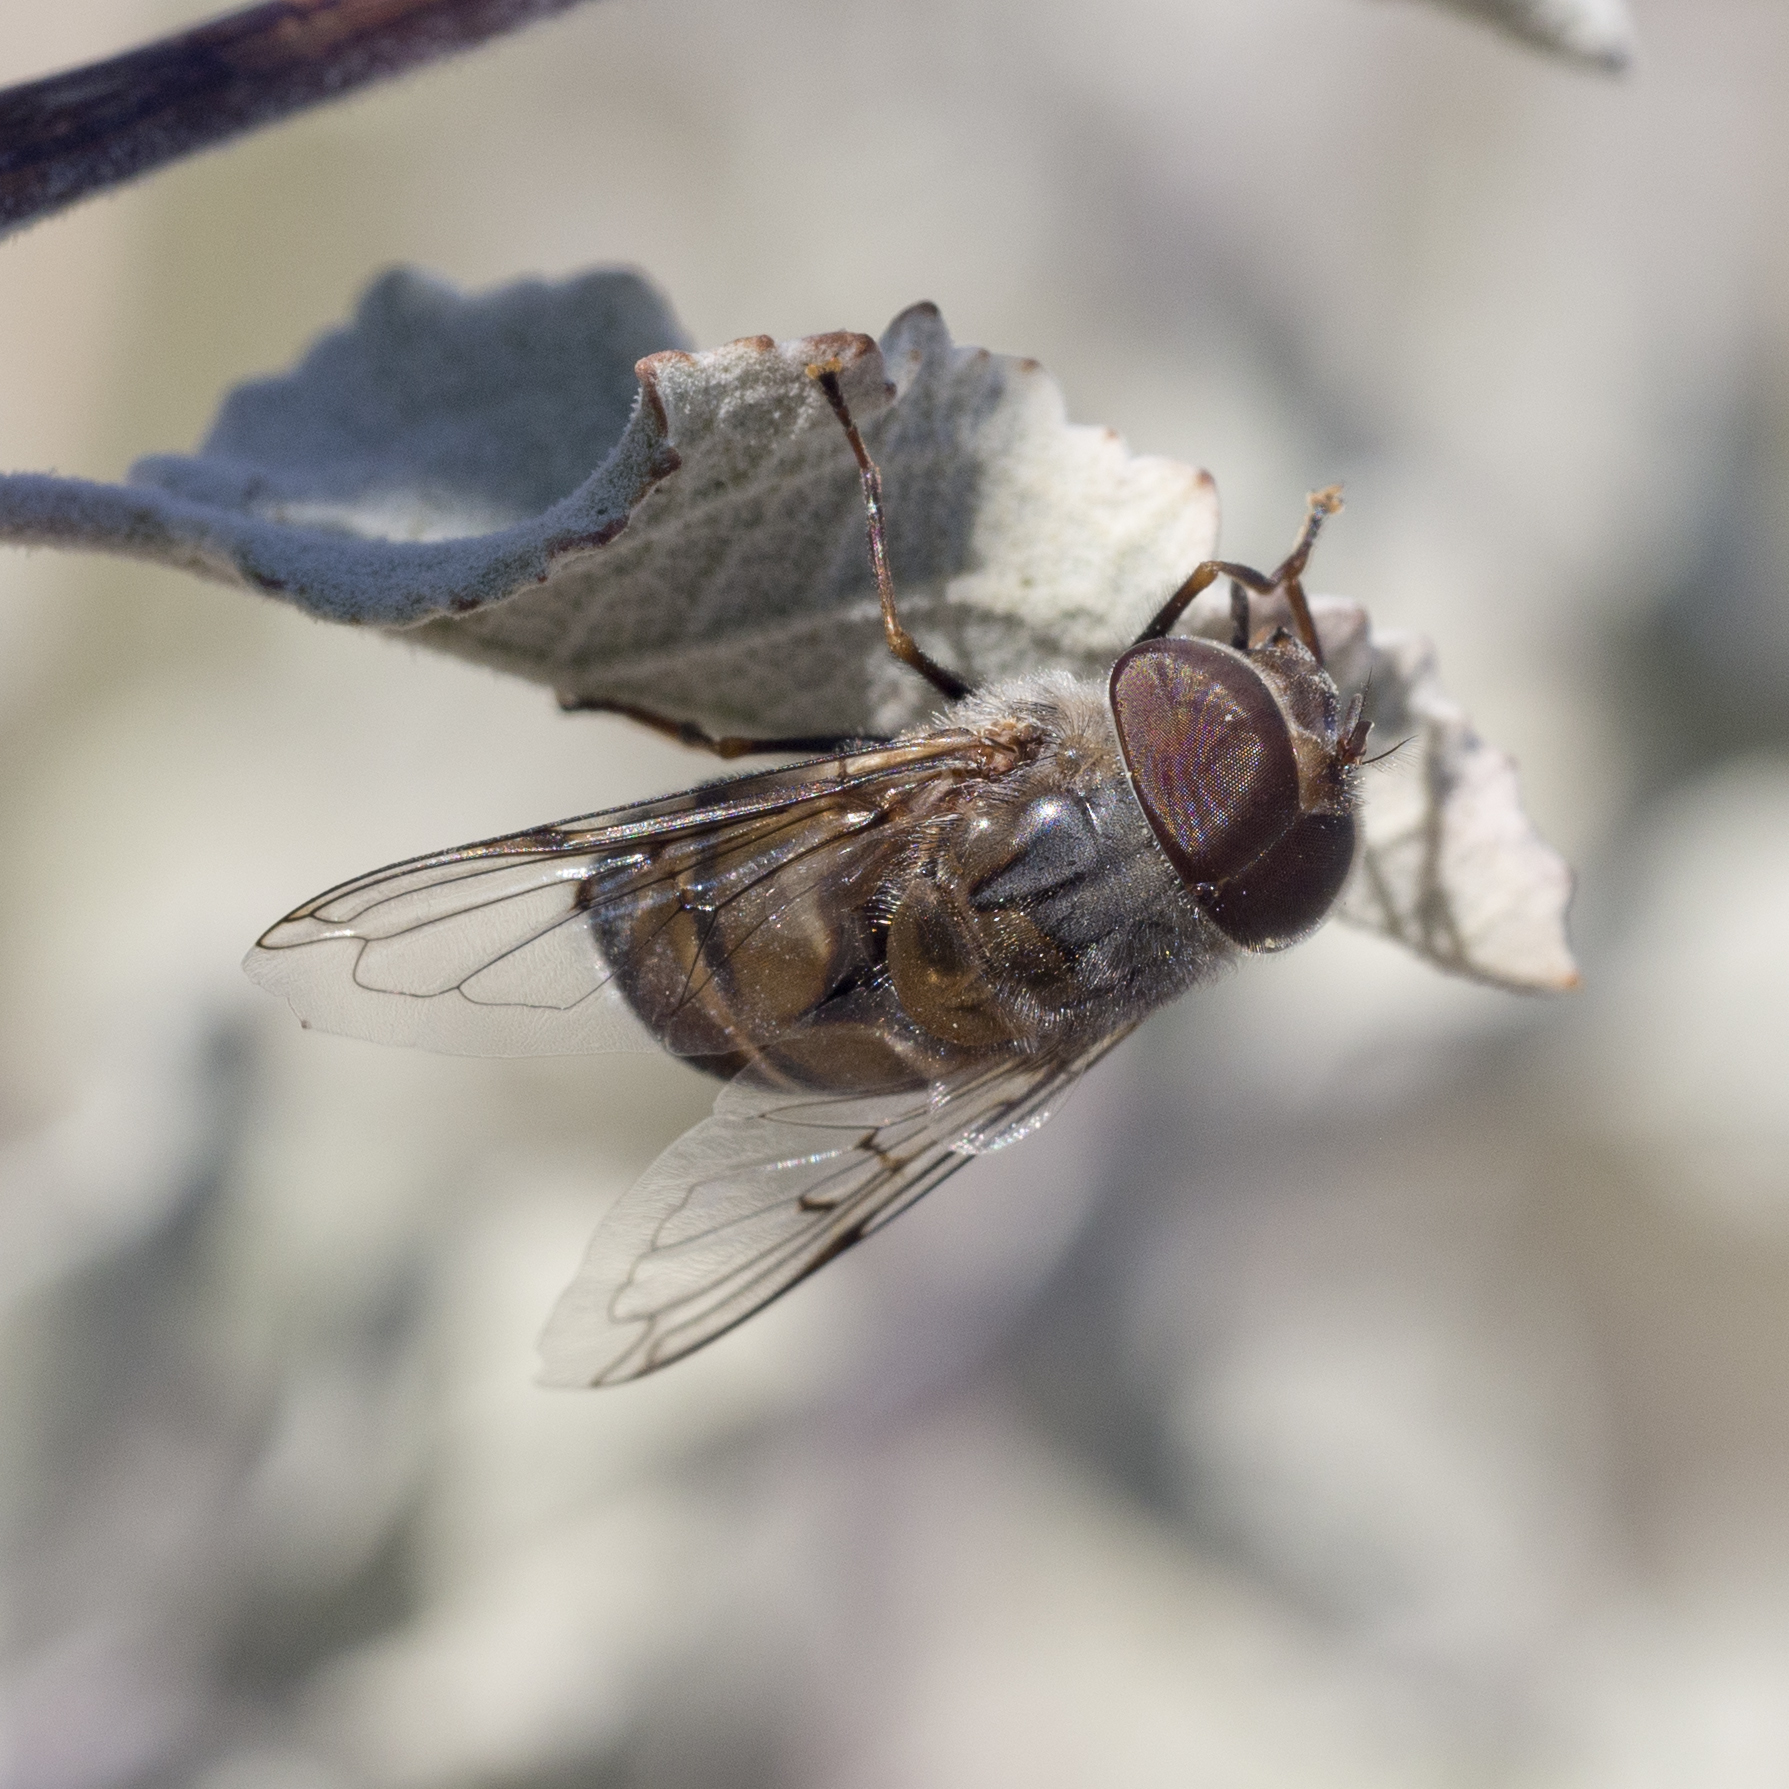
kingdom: Animalia
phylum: Arthropoda
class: Insecta
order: Diptera
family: Syrphidae
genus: Copestylum
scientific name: Copestylum isabellina
